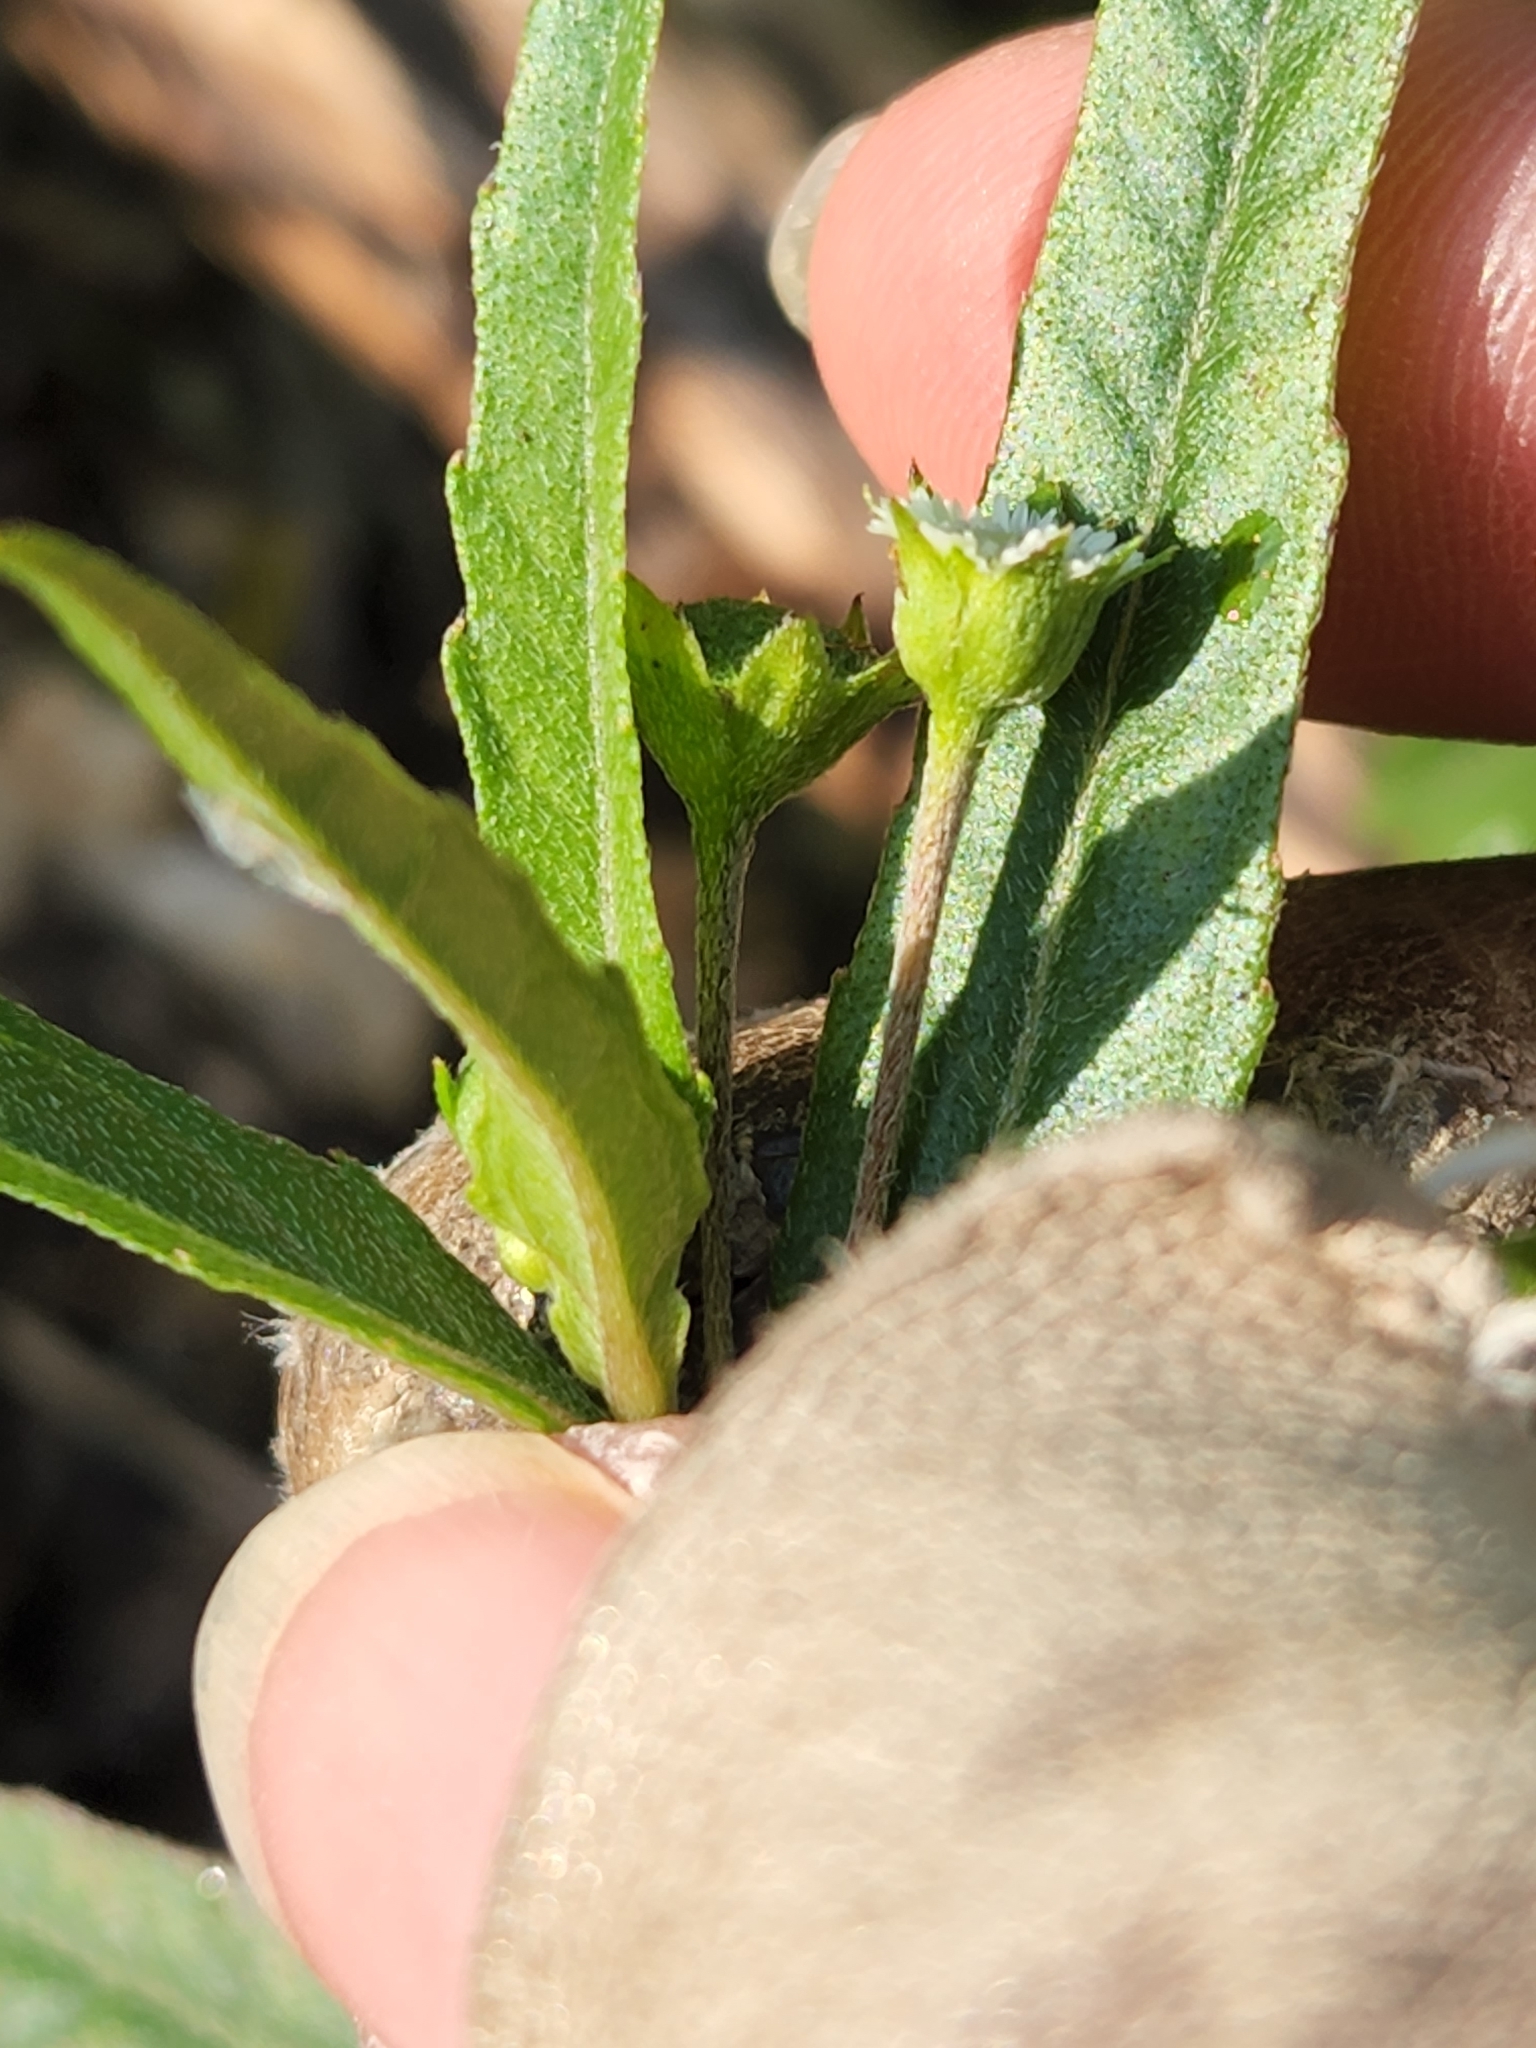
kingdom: Plantae
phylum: Tracheophyta
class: Magnoliopsida
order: Asterales
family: Asteraceae
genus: Eclipta
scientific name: Eclipta prostrata
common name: False daisy
